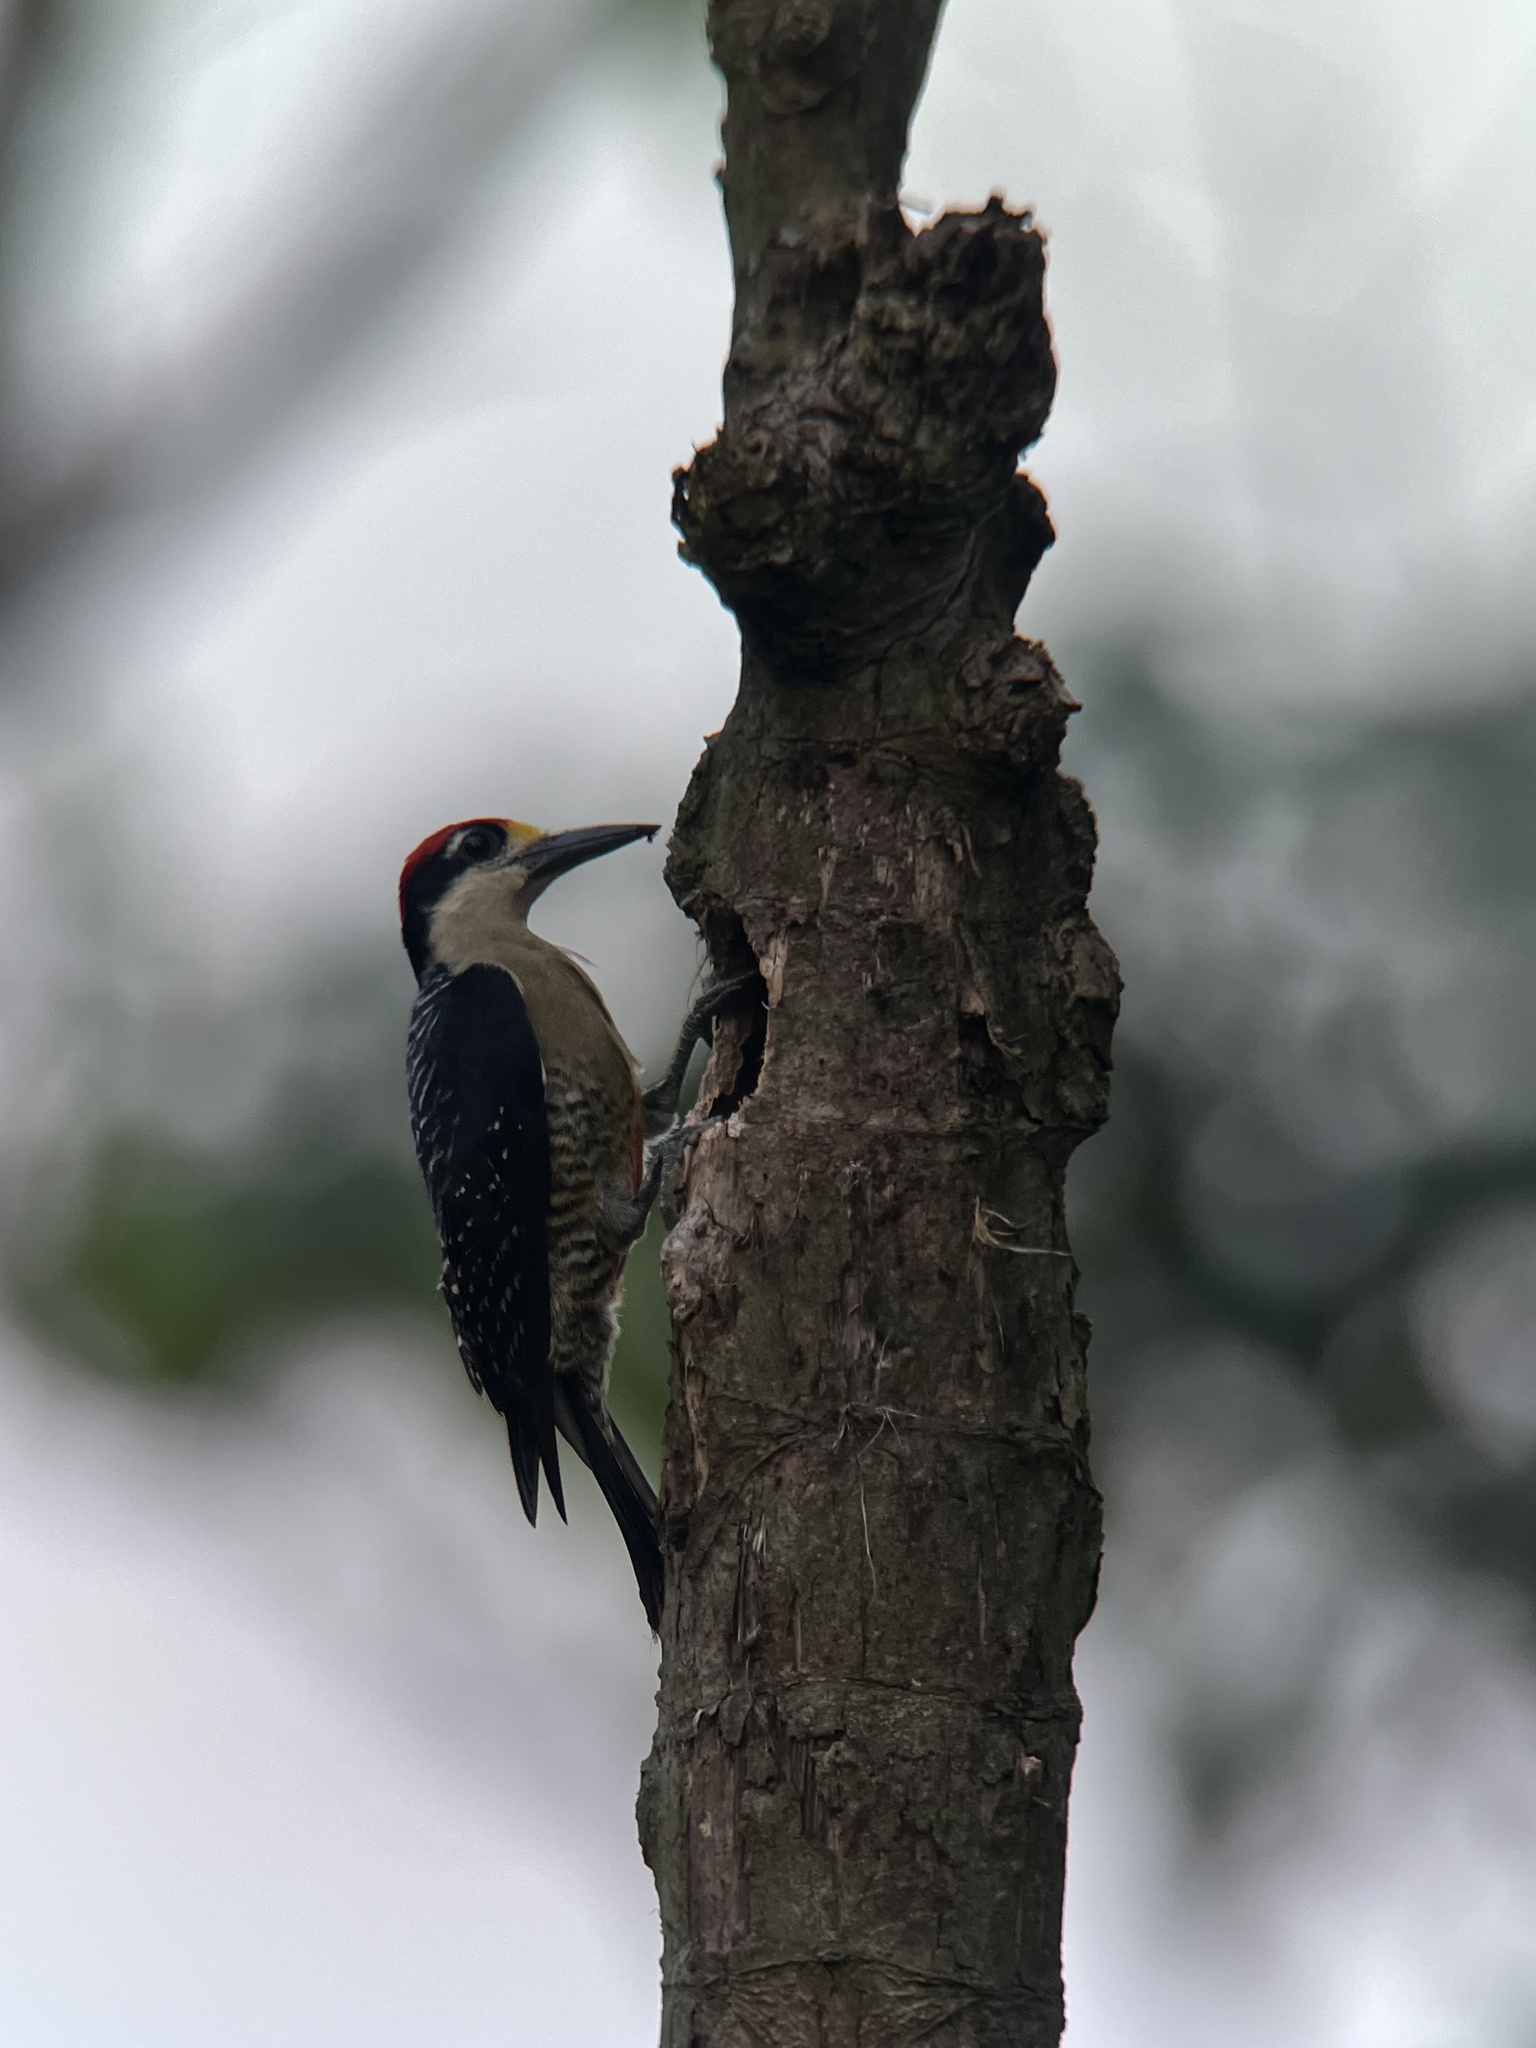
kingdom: Animalia
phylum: Chordata
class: Aves
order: Piciformes
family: Picidae
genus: Melanerpes
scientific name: Melanerpes pucherani
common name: Black-cheeked woodpecker
